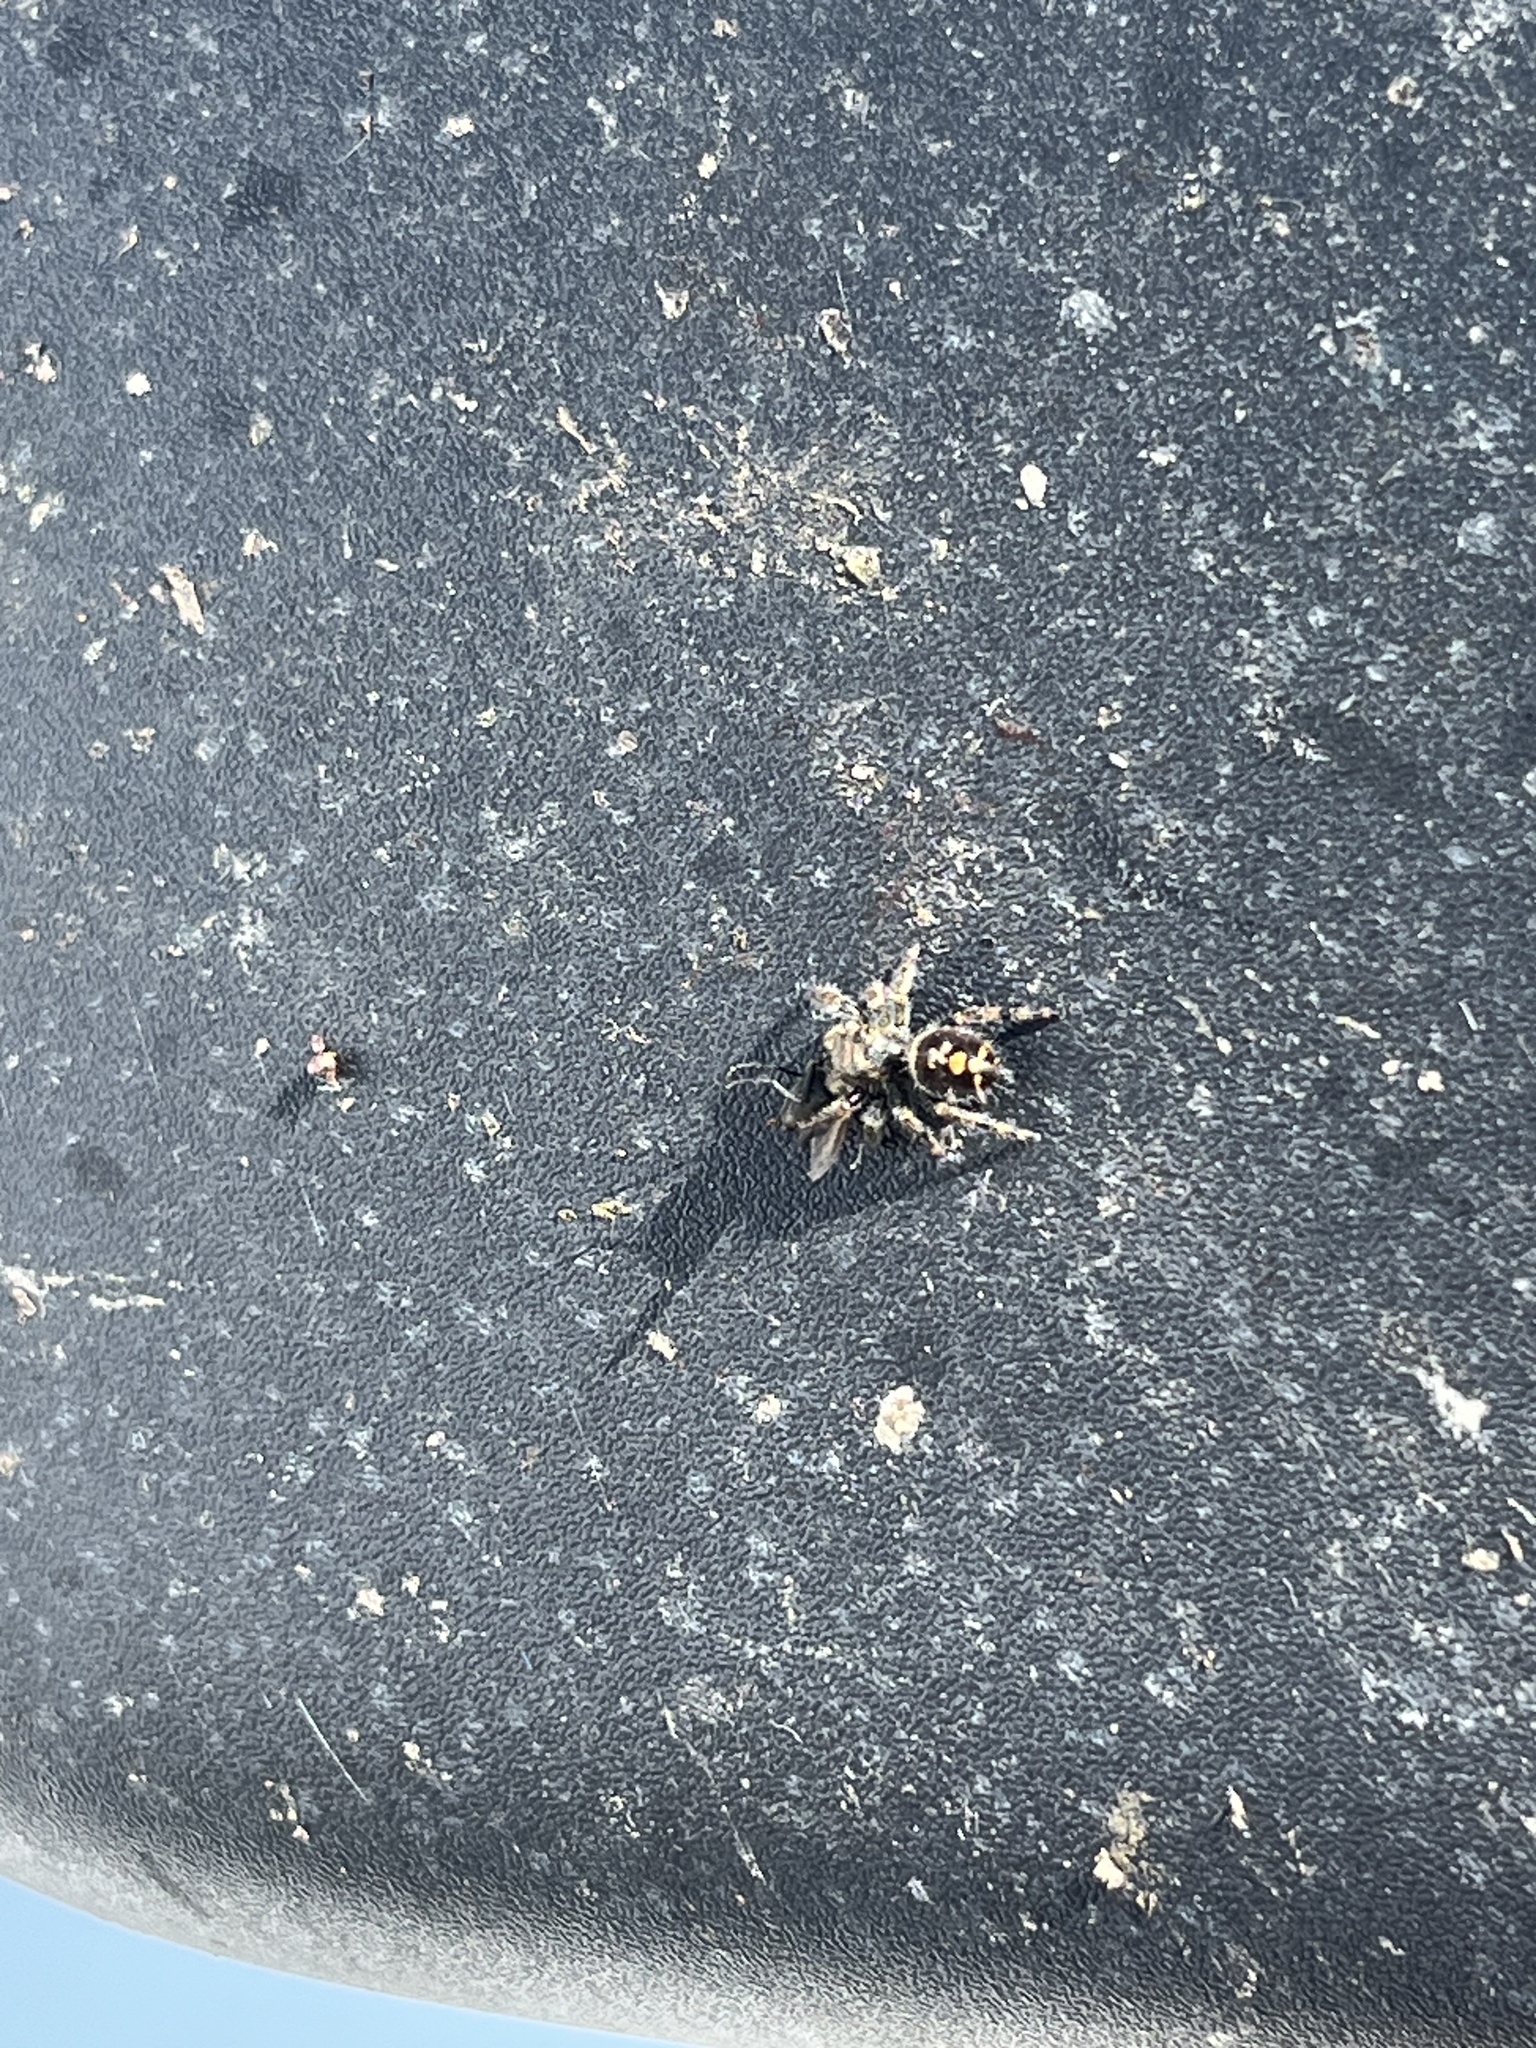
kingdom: Animalia
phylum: Arthropoda
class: Arachnida
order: Araneae
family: Salticidae
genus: Phidippus
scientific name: Phidippus audax
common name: Bold jumper
